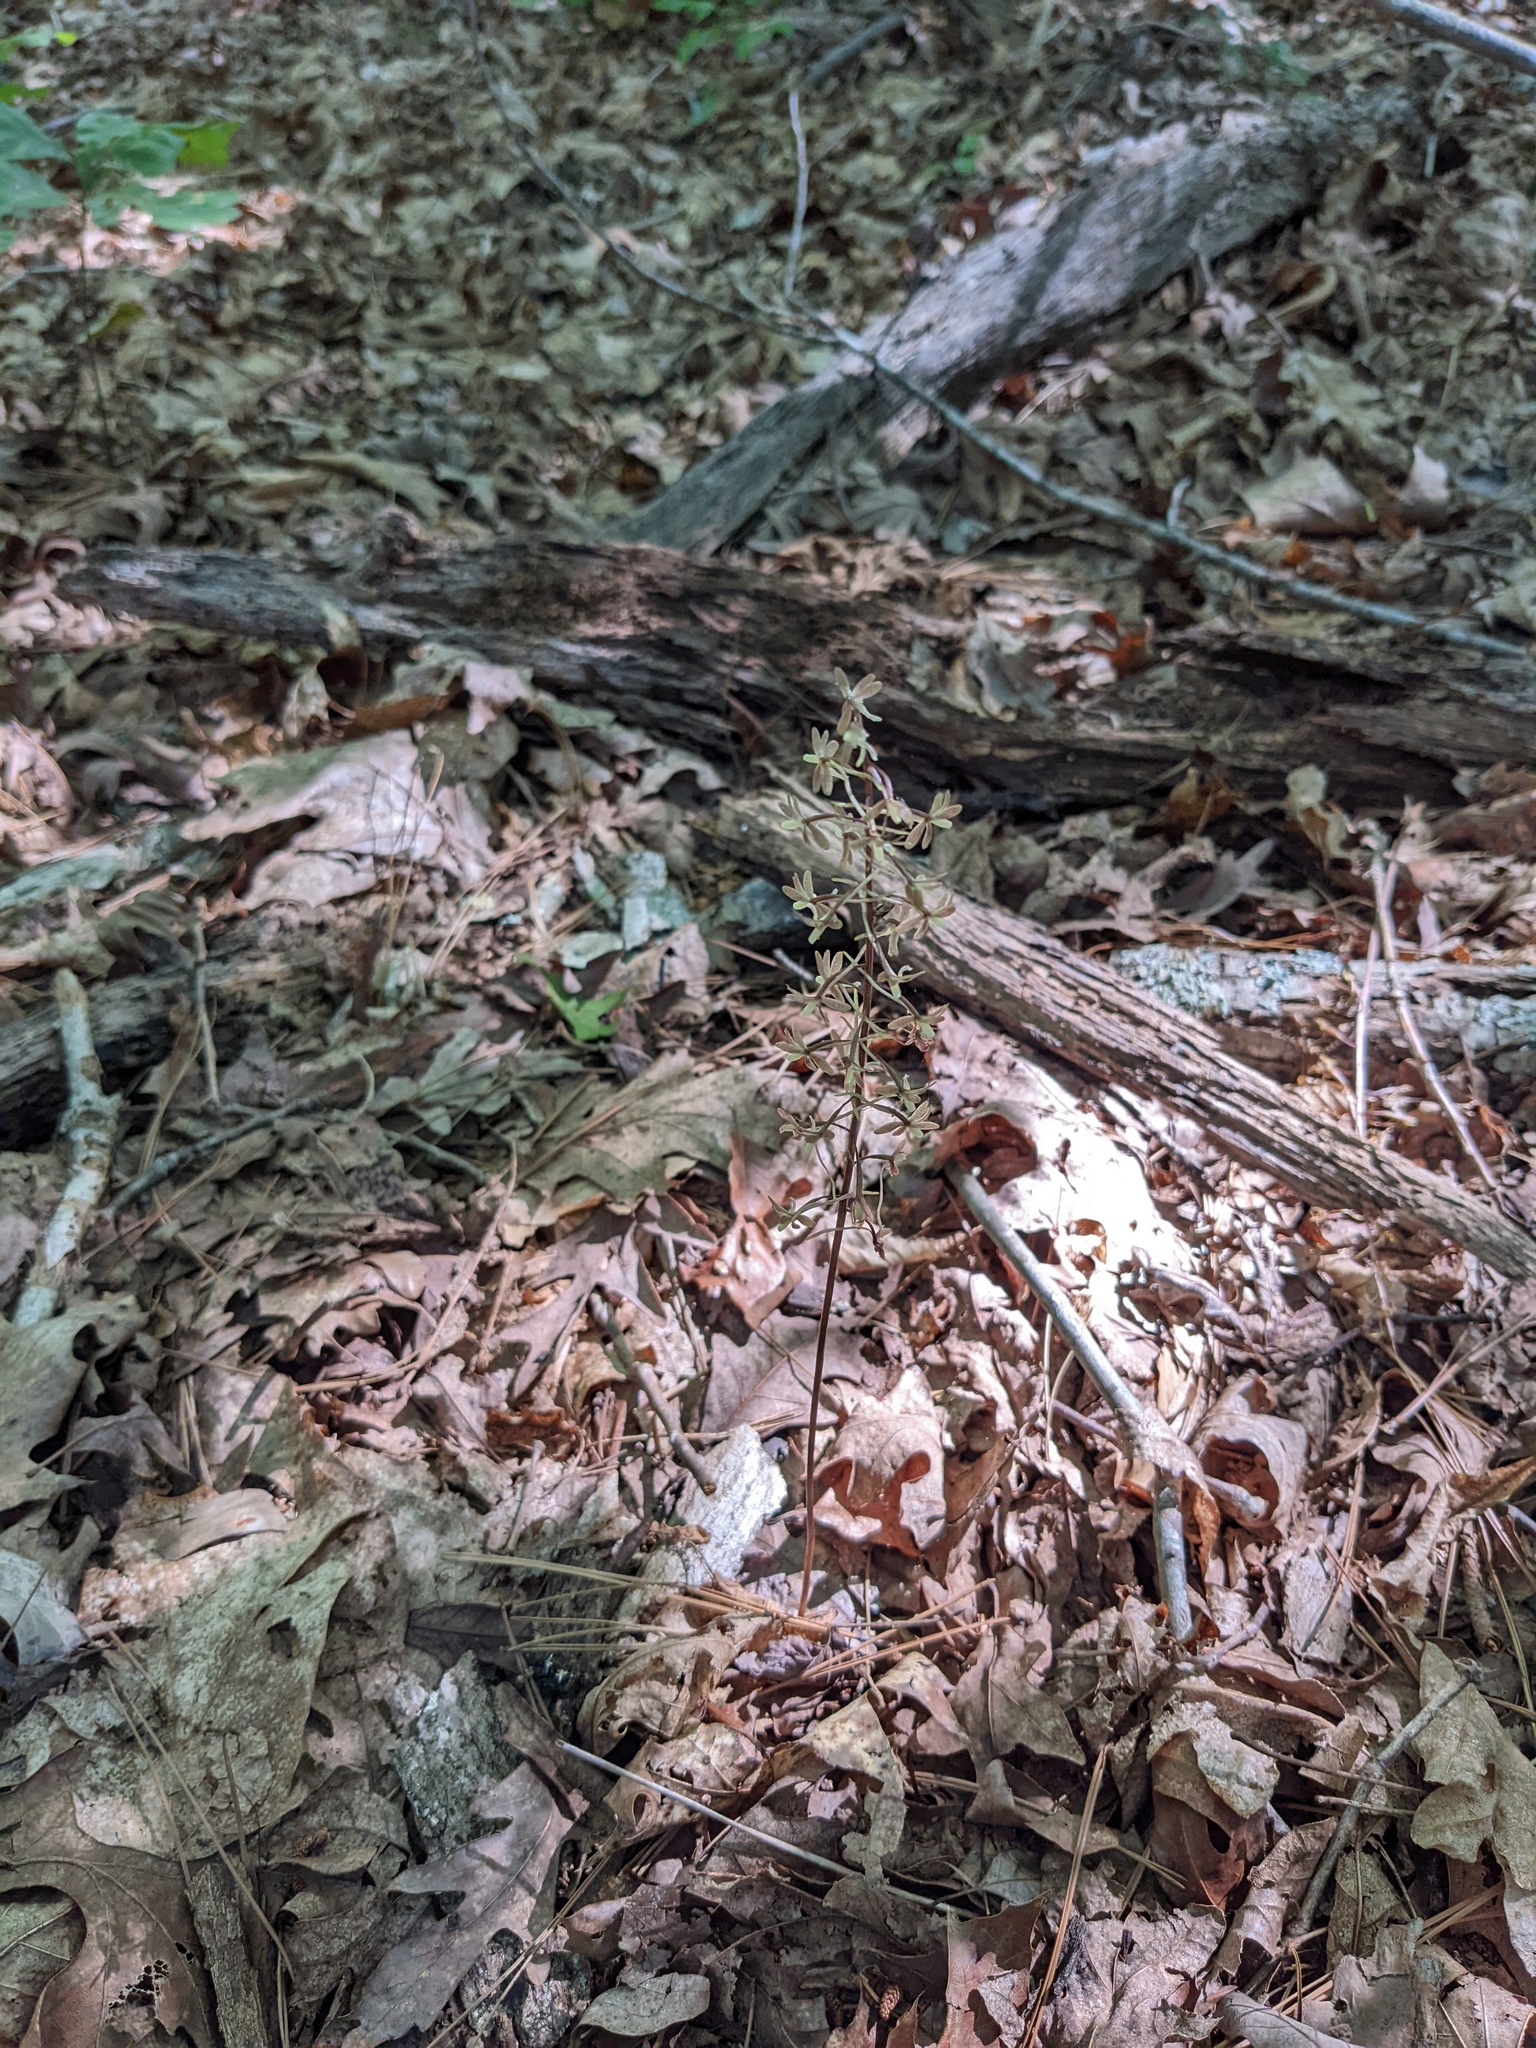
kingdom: Plantae
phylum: Tracheophyta
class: Liliopsida
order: Asparagales
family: Orchidaceae
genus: Tipularia
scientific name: Tipularia discolor
